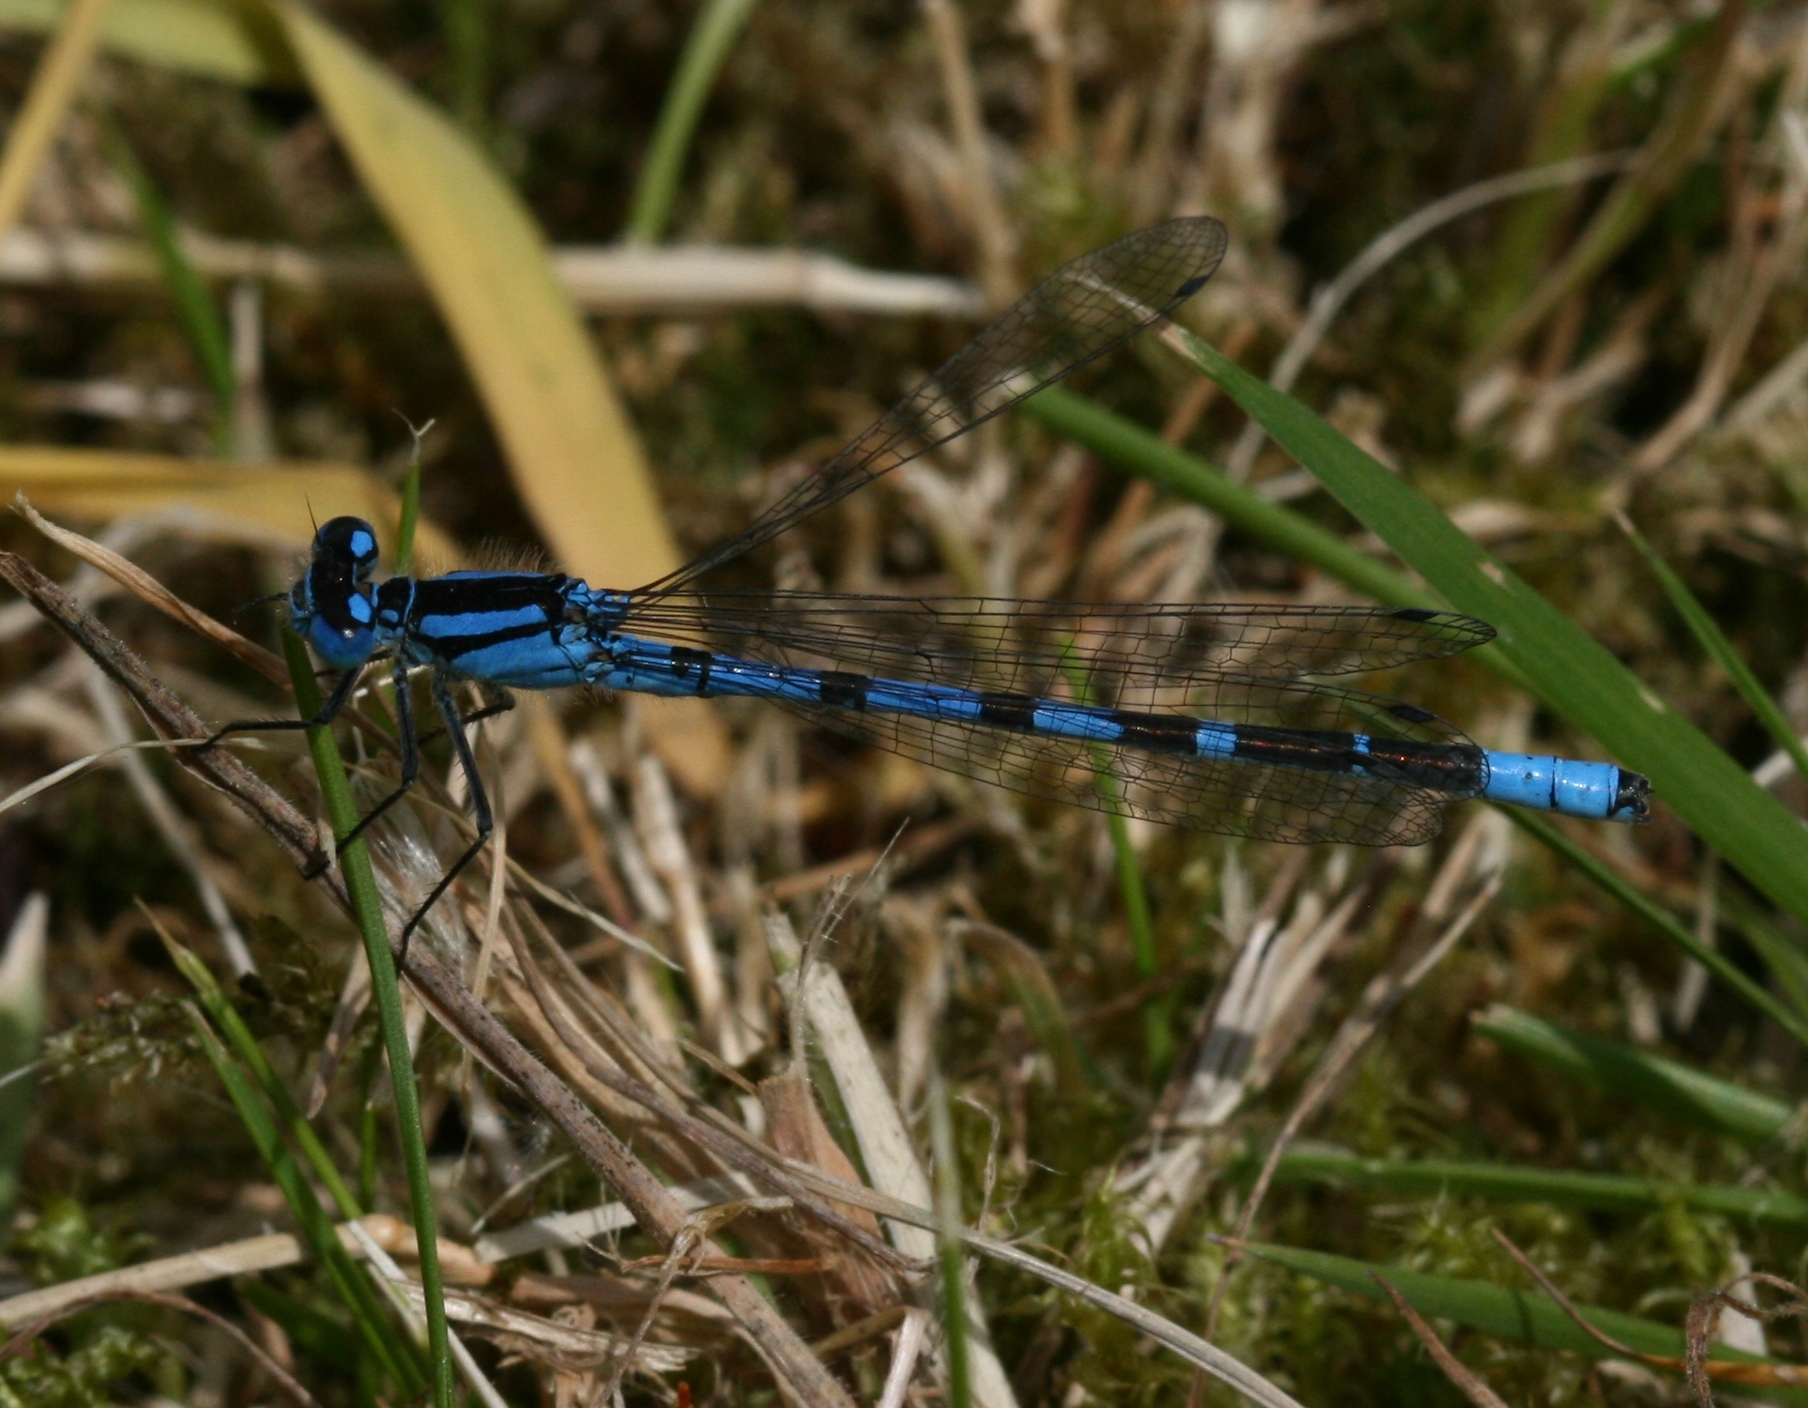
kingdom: Animalia
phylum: Arthropoda
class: Insecta
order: Odonata
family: Coenagrionidae
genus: Enallagma
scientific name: Enallagma cyathigerum
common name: Common blue damselfly
